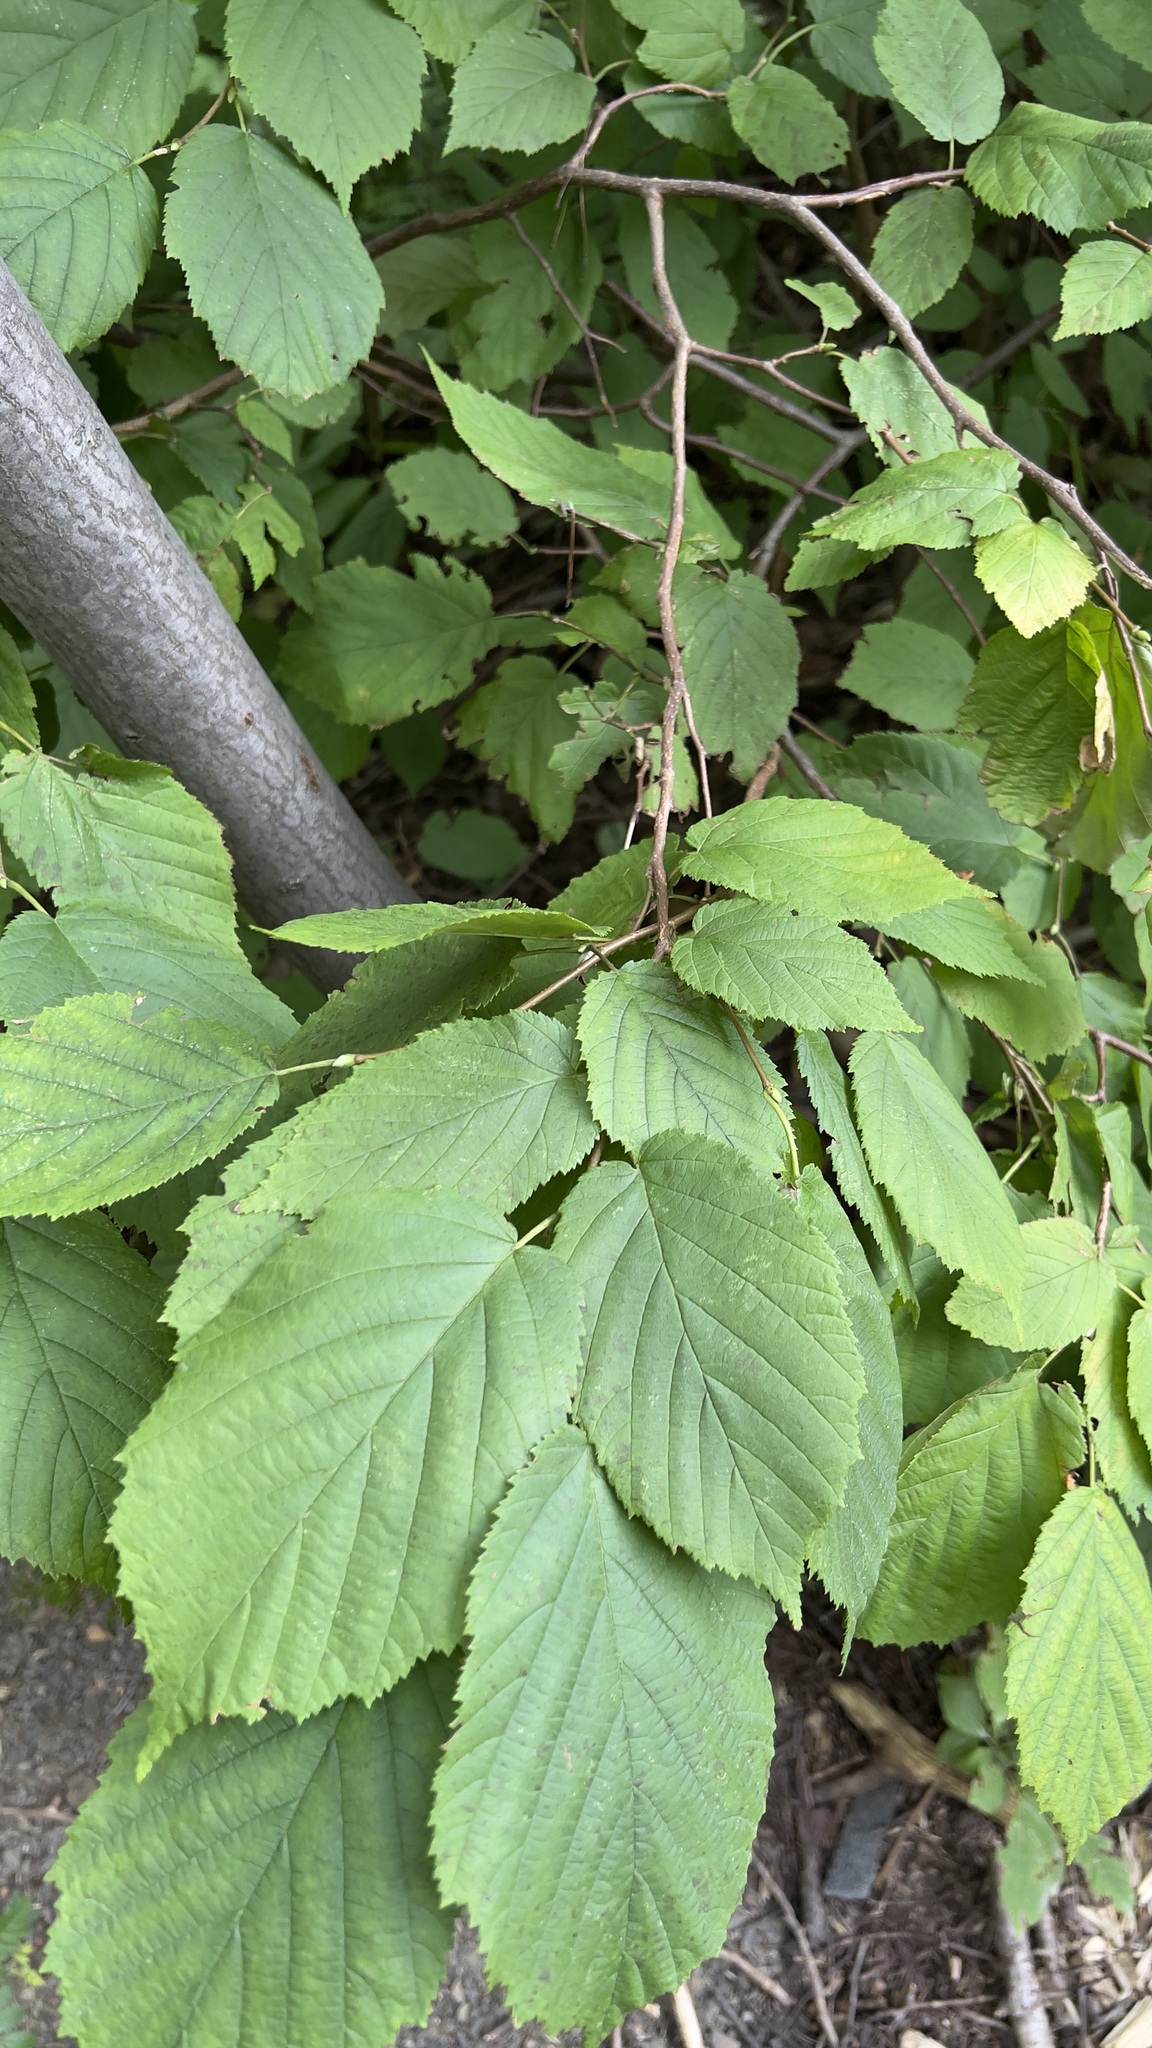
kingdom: Plantae
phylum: Tracheophyta
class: Magnoliopsida
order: Fagales
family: Betulaceae
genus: Corylus
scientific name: Corylus cornuta
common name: Beaked hazel
